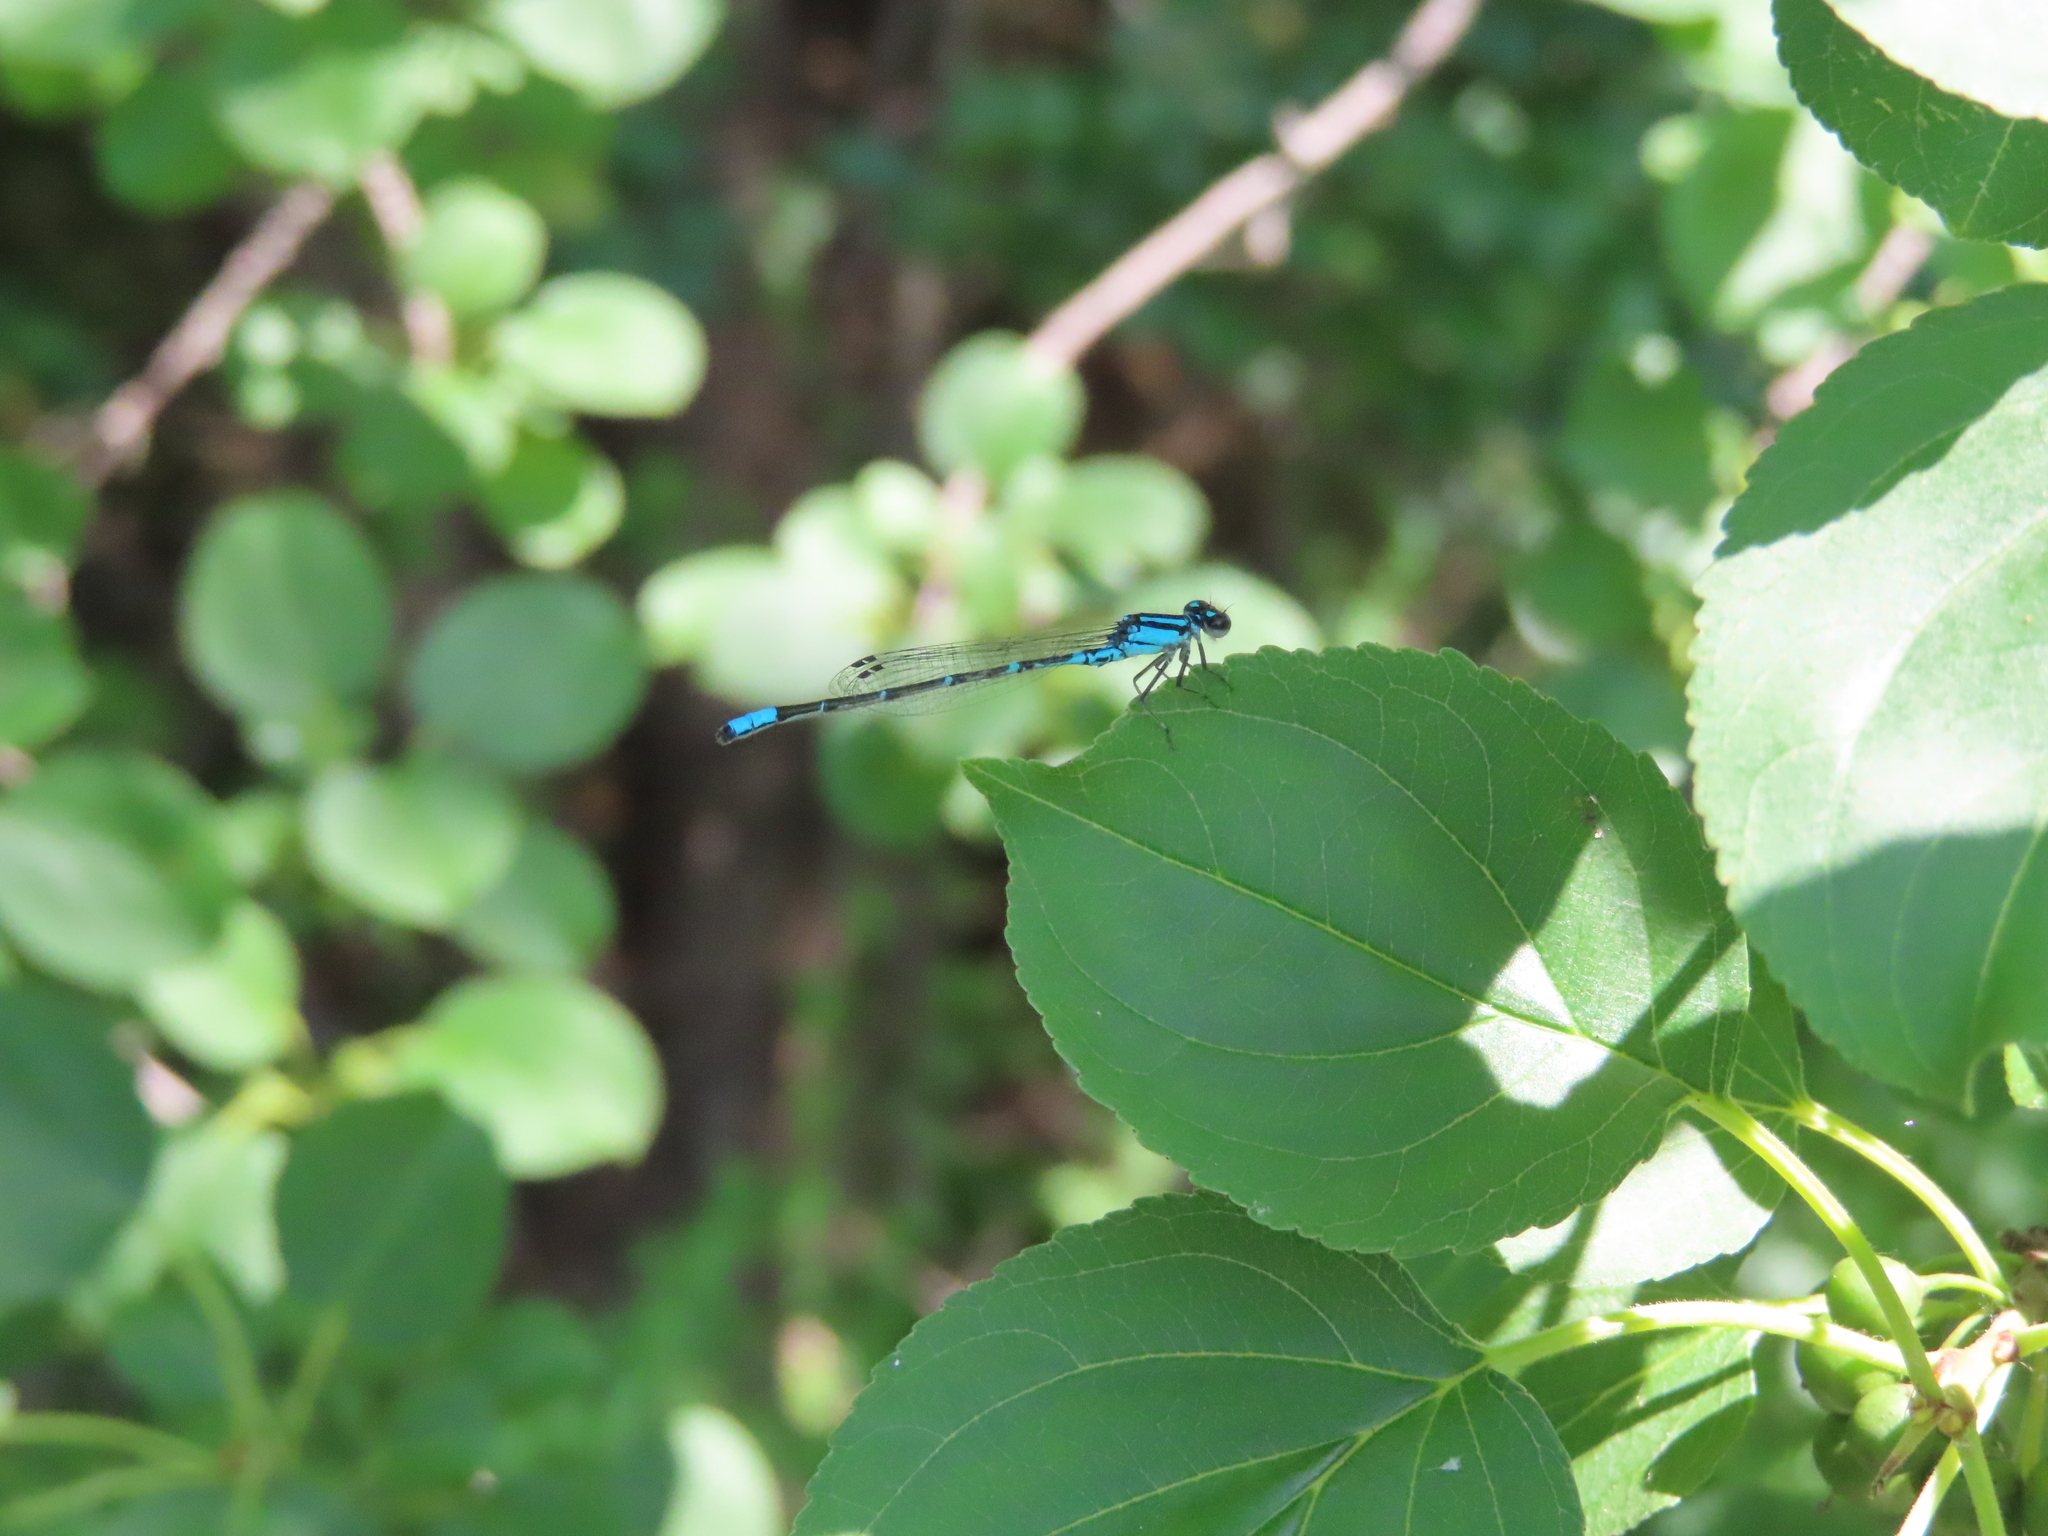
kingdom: Animalia
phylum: Arthropoda
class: Insecta
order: Odonata
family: Coenagrionidae
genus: Enallagma
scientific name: Enallagma geminatum
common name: Skimming bluet
